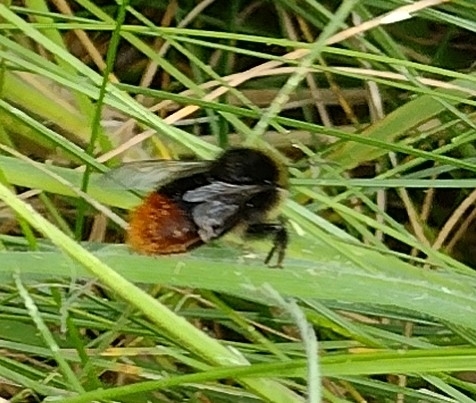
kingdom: Animalia
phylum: Arthropoda
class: Insecta
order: Hymenoptera
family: Apidae
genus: Bombus
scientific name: Bombus lapidarius
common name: Large red-tailed humble-bee
